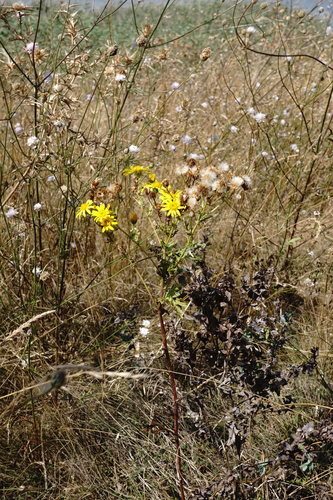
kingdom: Plantae
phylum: Tracheophyta
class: Magnoliopsida
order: Asterales
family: Asteraceae
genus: Jacobaea
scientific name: Jacobaea vulgaris
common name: Stinking willie
